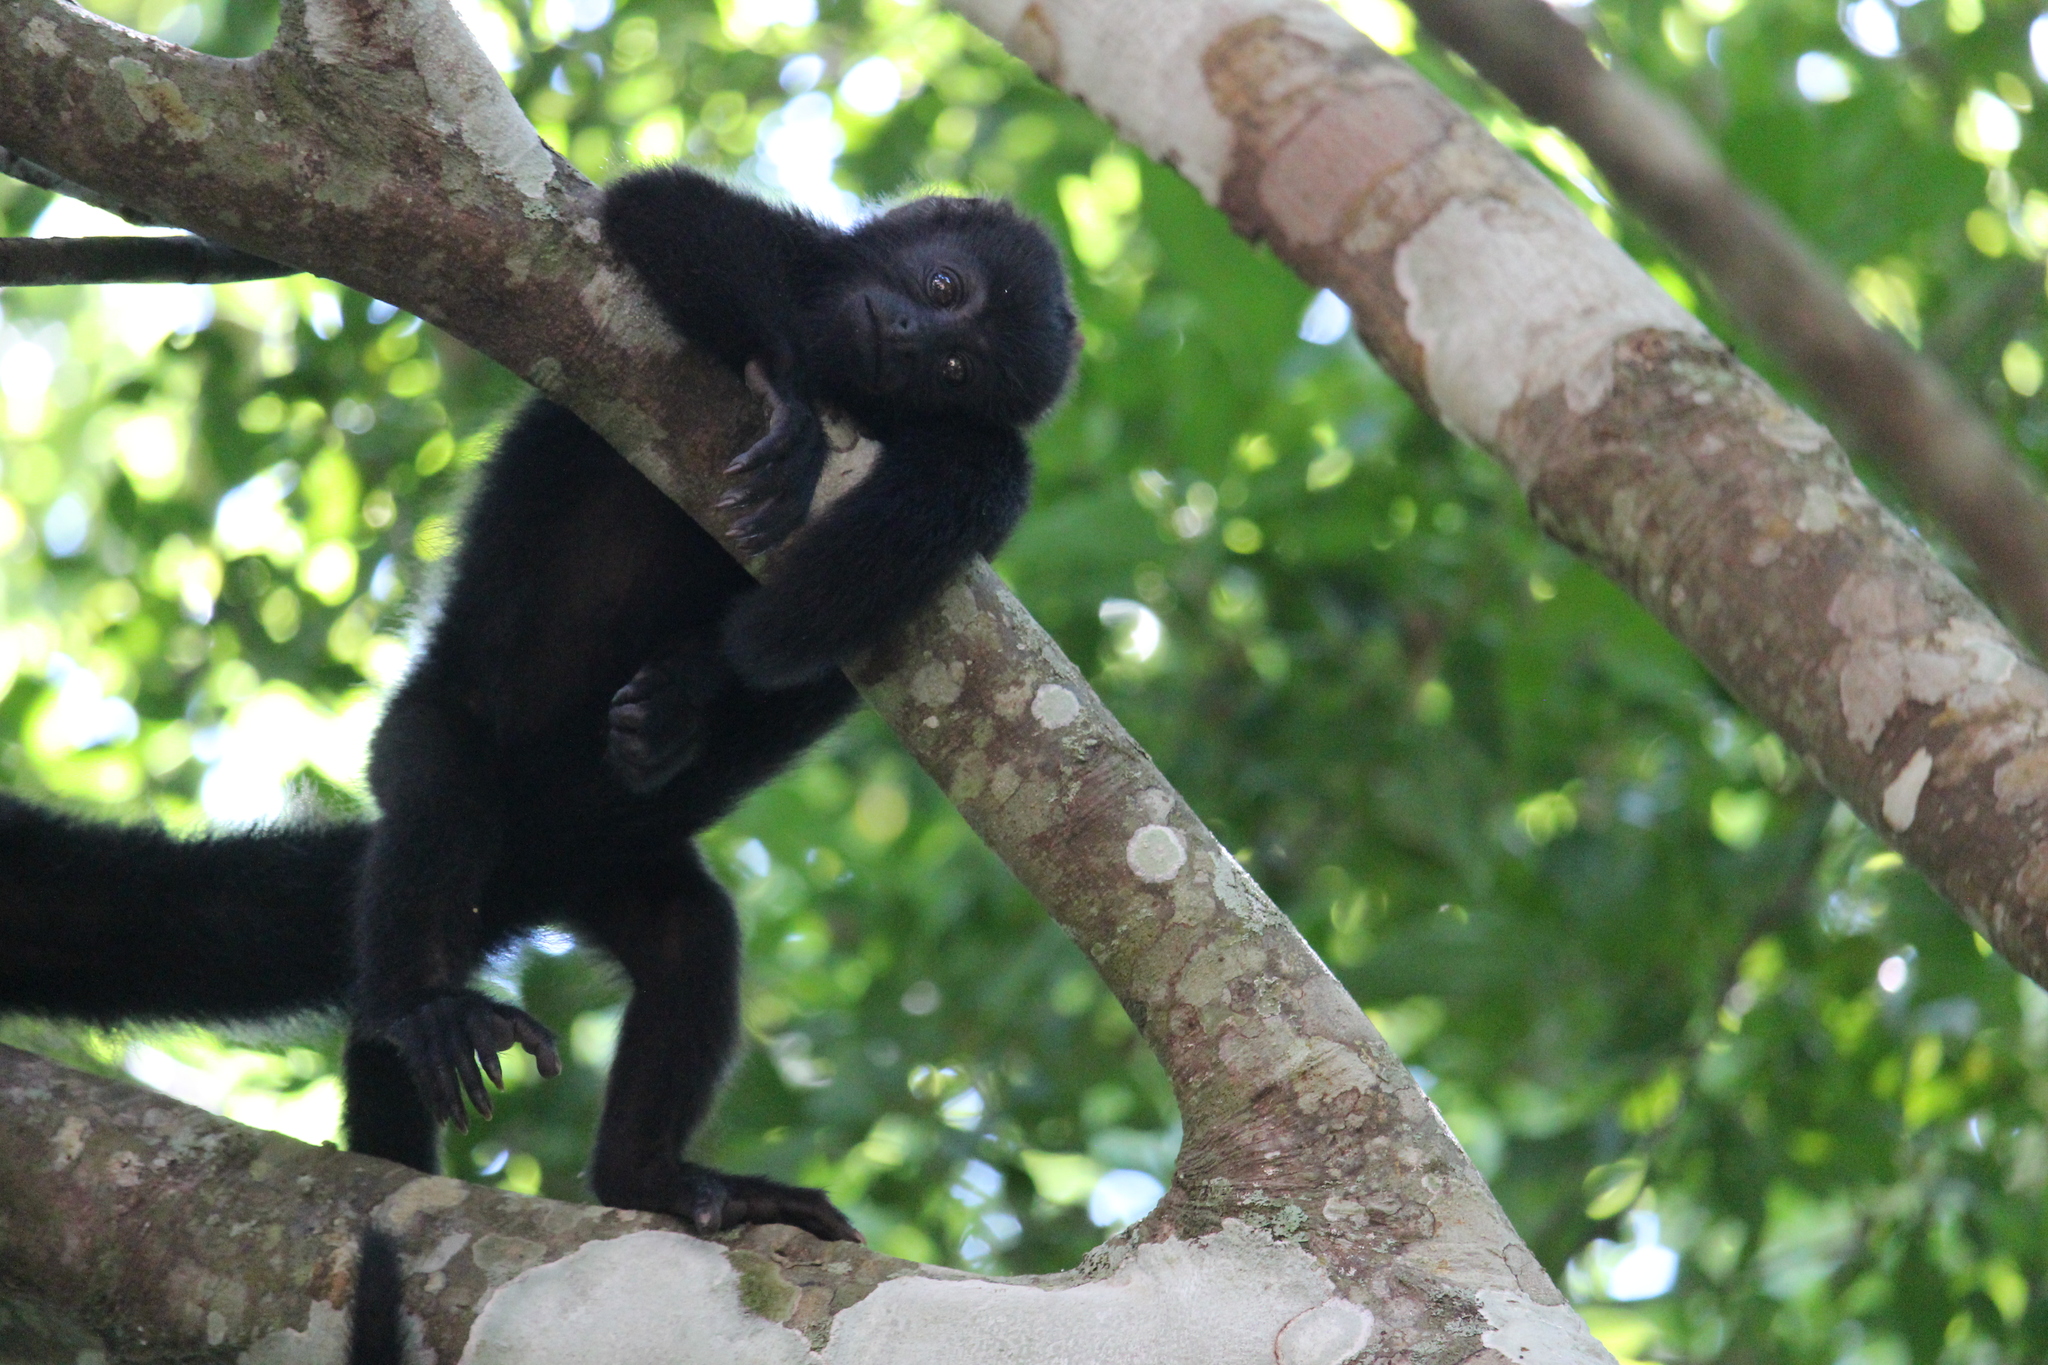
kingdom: Animalia
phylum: Chordata
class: Mammalia
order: Primates
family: Atelidae
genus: Alouatta
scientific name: Alouatta pigra
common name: Guatemalan black howler
